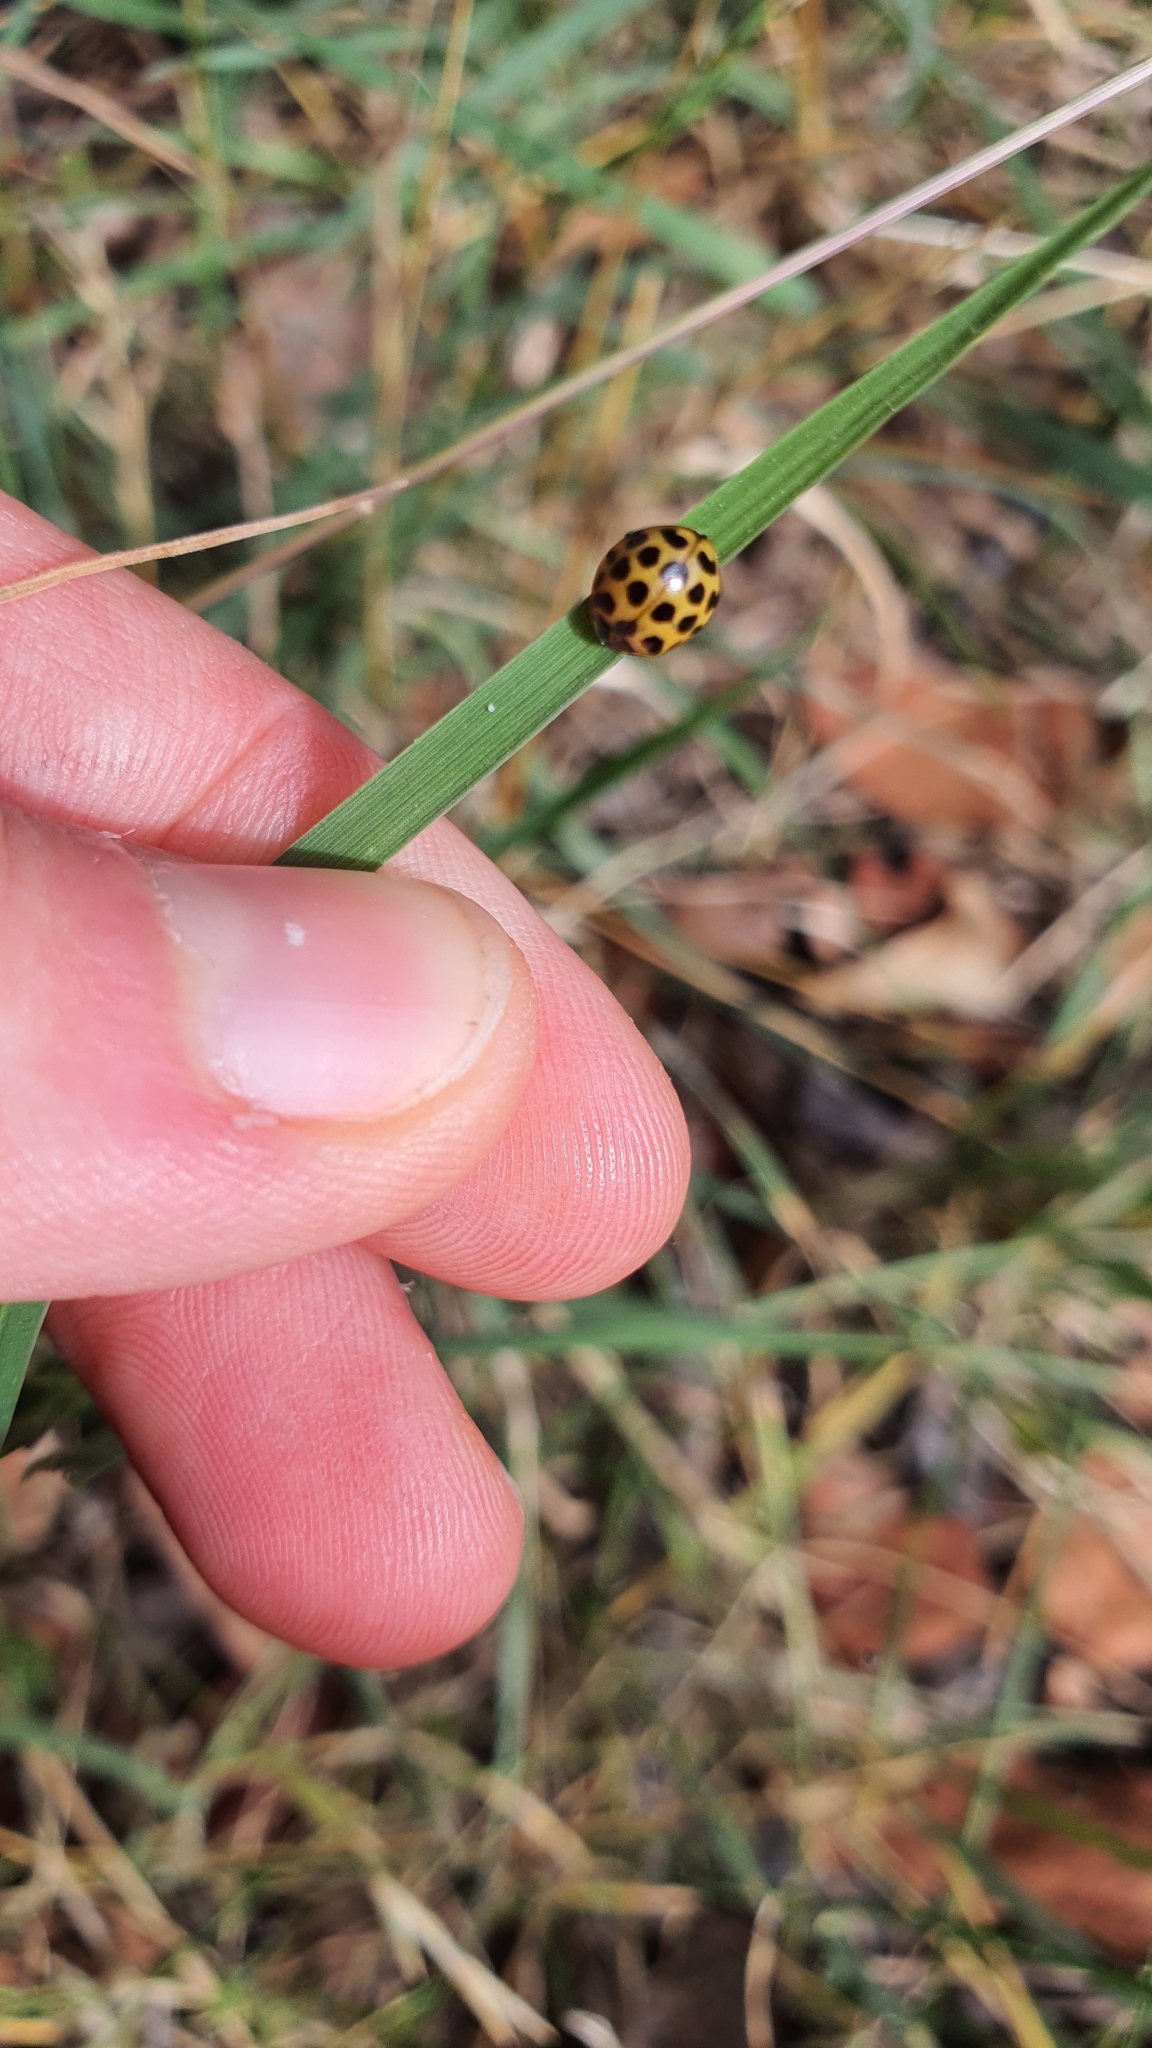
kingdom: Animalia
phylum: Arthropoda
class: Insecta
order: Coleoptera
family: Coccinellidae
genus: Harmonia
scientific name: Harmonia conformis
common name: Common spotted ladybird beetle
